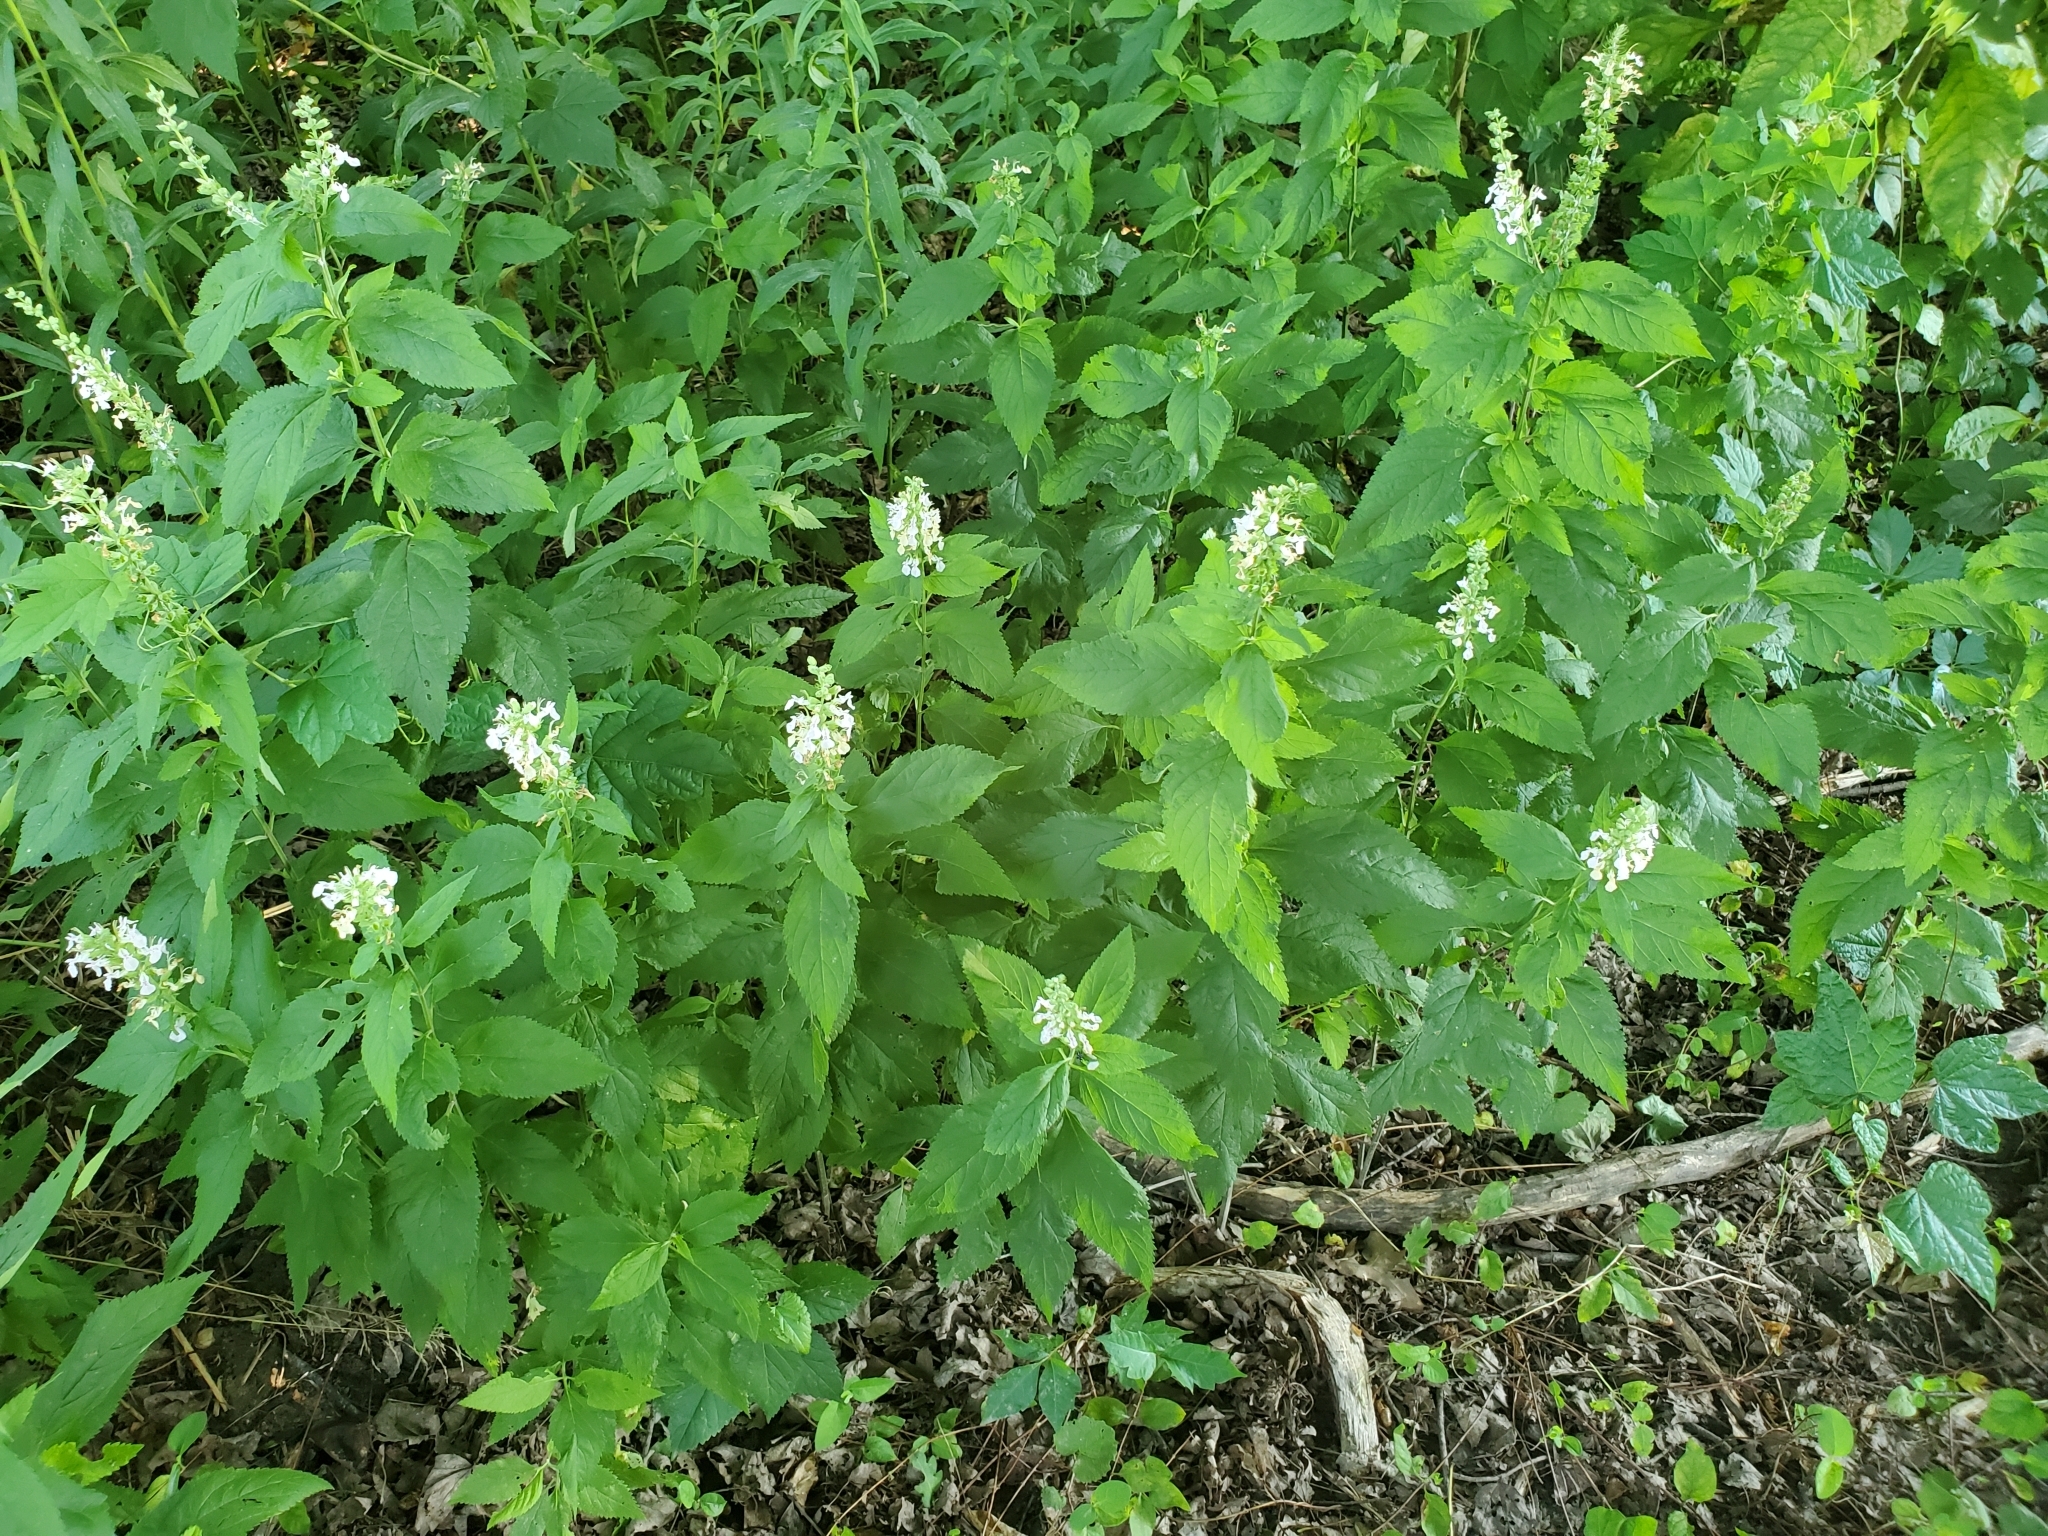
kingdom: Plantae
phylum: Tracheophyta
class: Magnoliopsida
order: Lamiales
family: Lamiaceae
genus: Teucrium
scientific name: Teucrium canadense
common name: American germander
